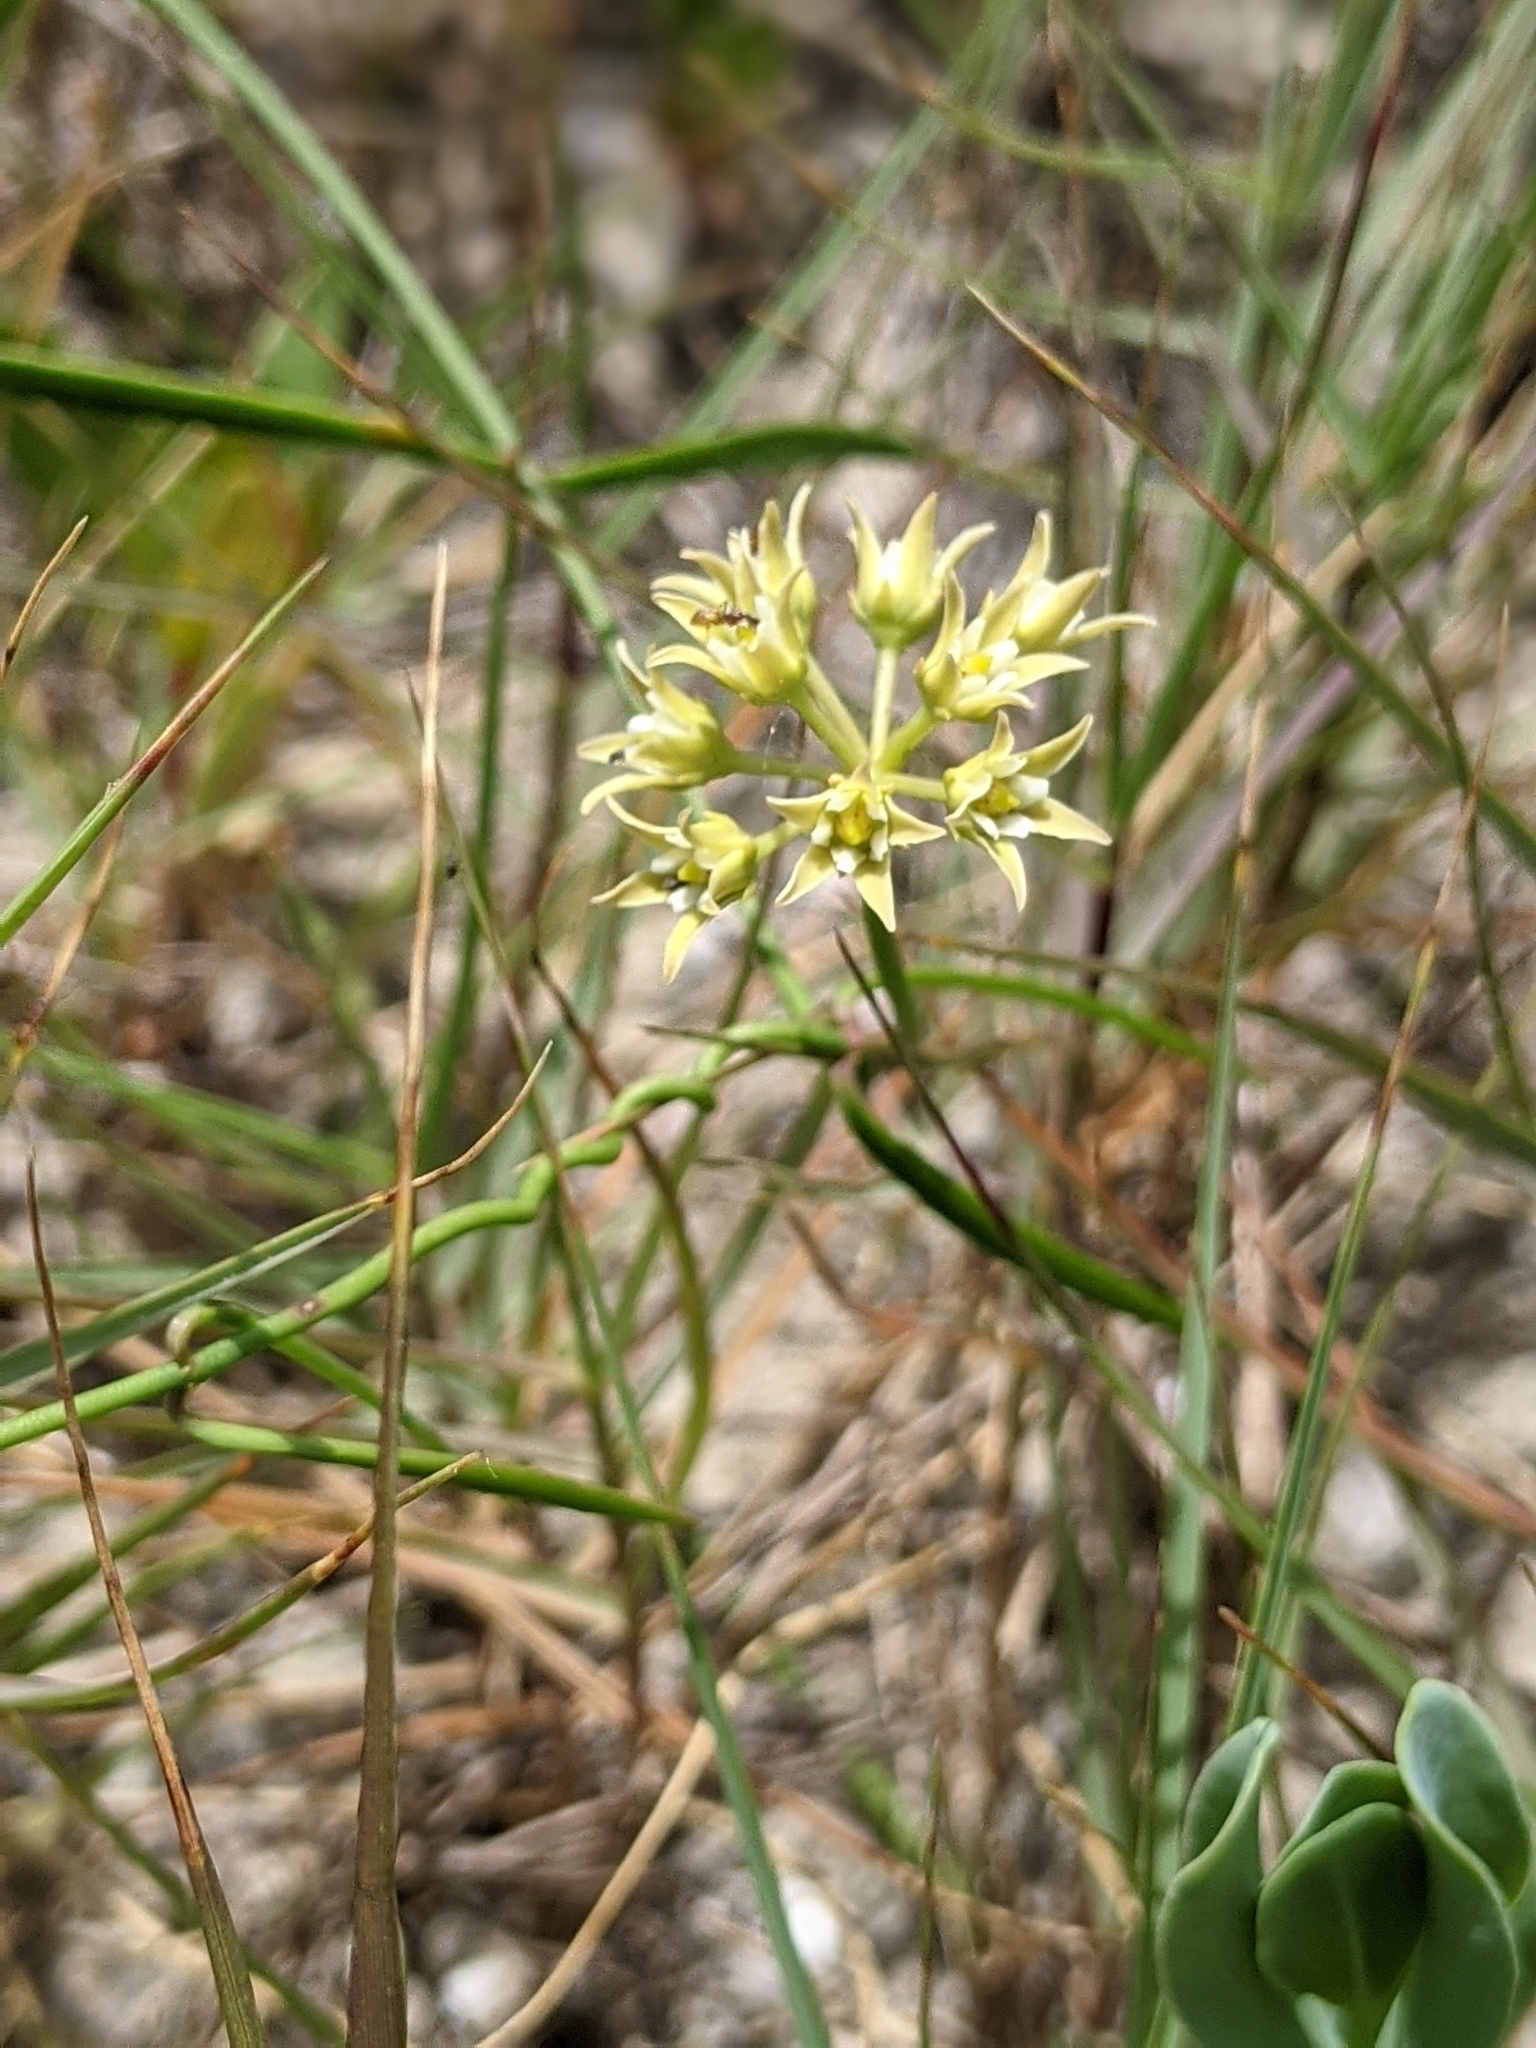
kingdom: Plantae
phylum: Tracheophyta
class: Magnoliopsida
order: Gentianales
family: Apocynaceae
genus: Pattalias
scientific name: Pattalias
